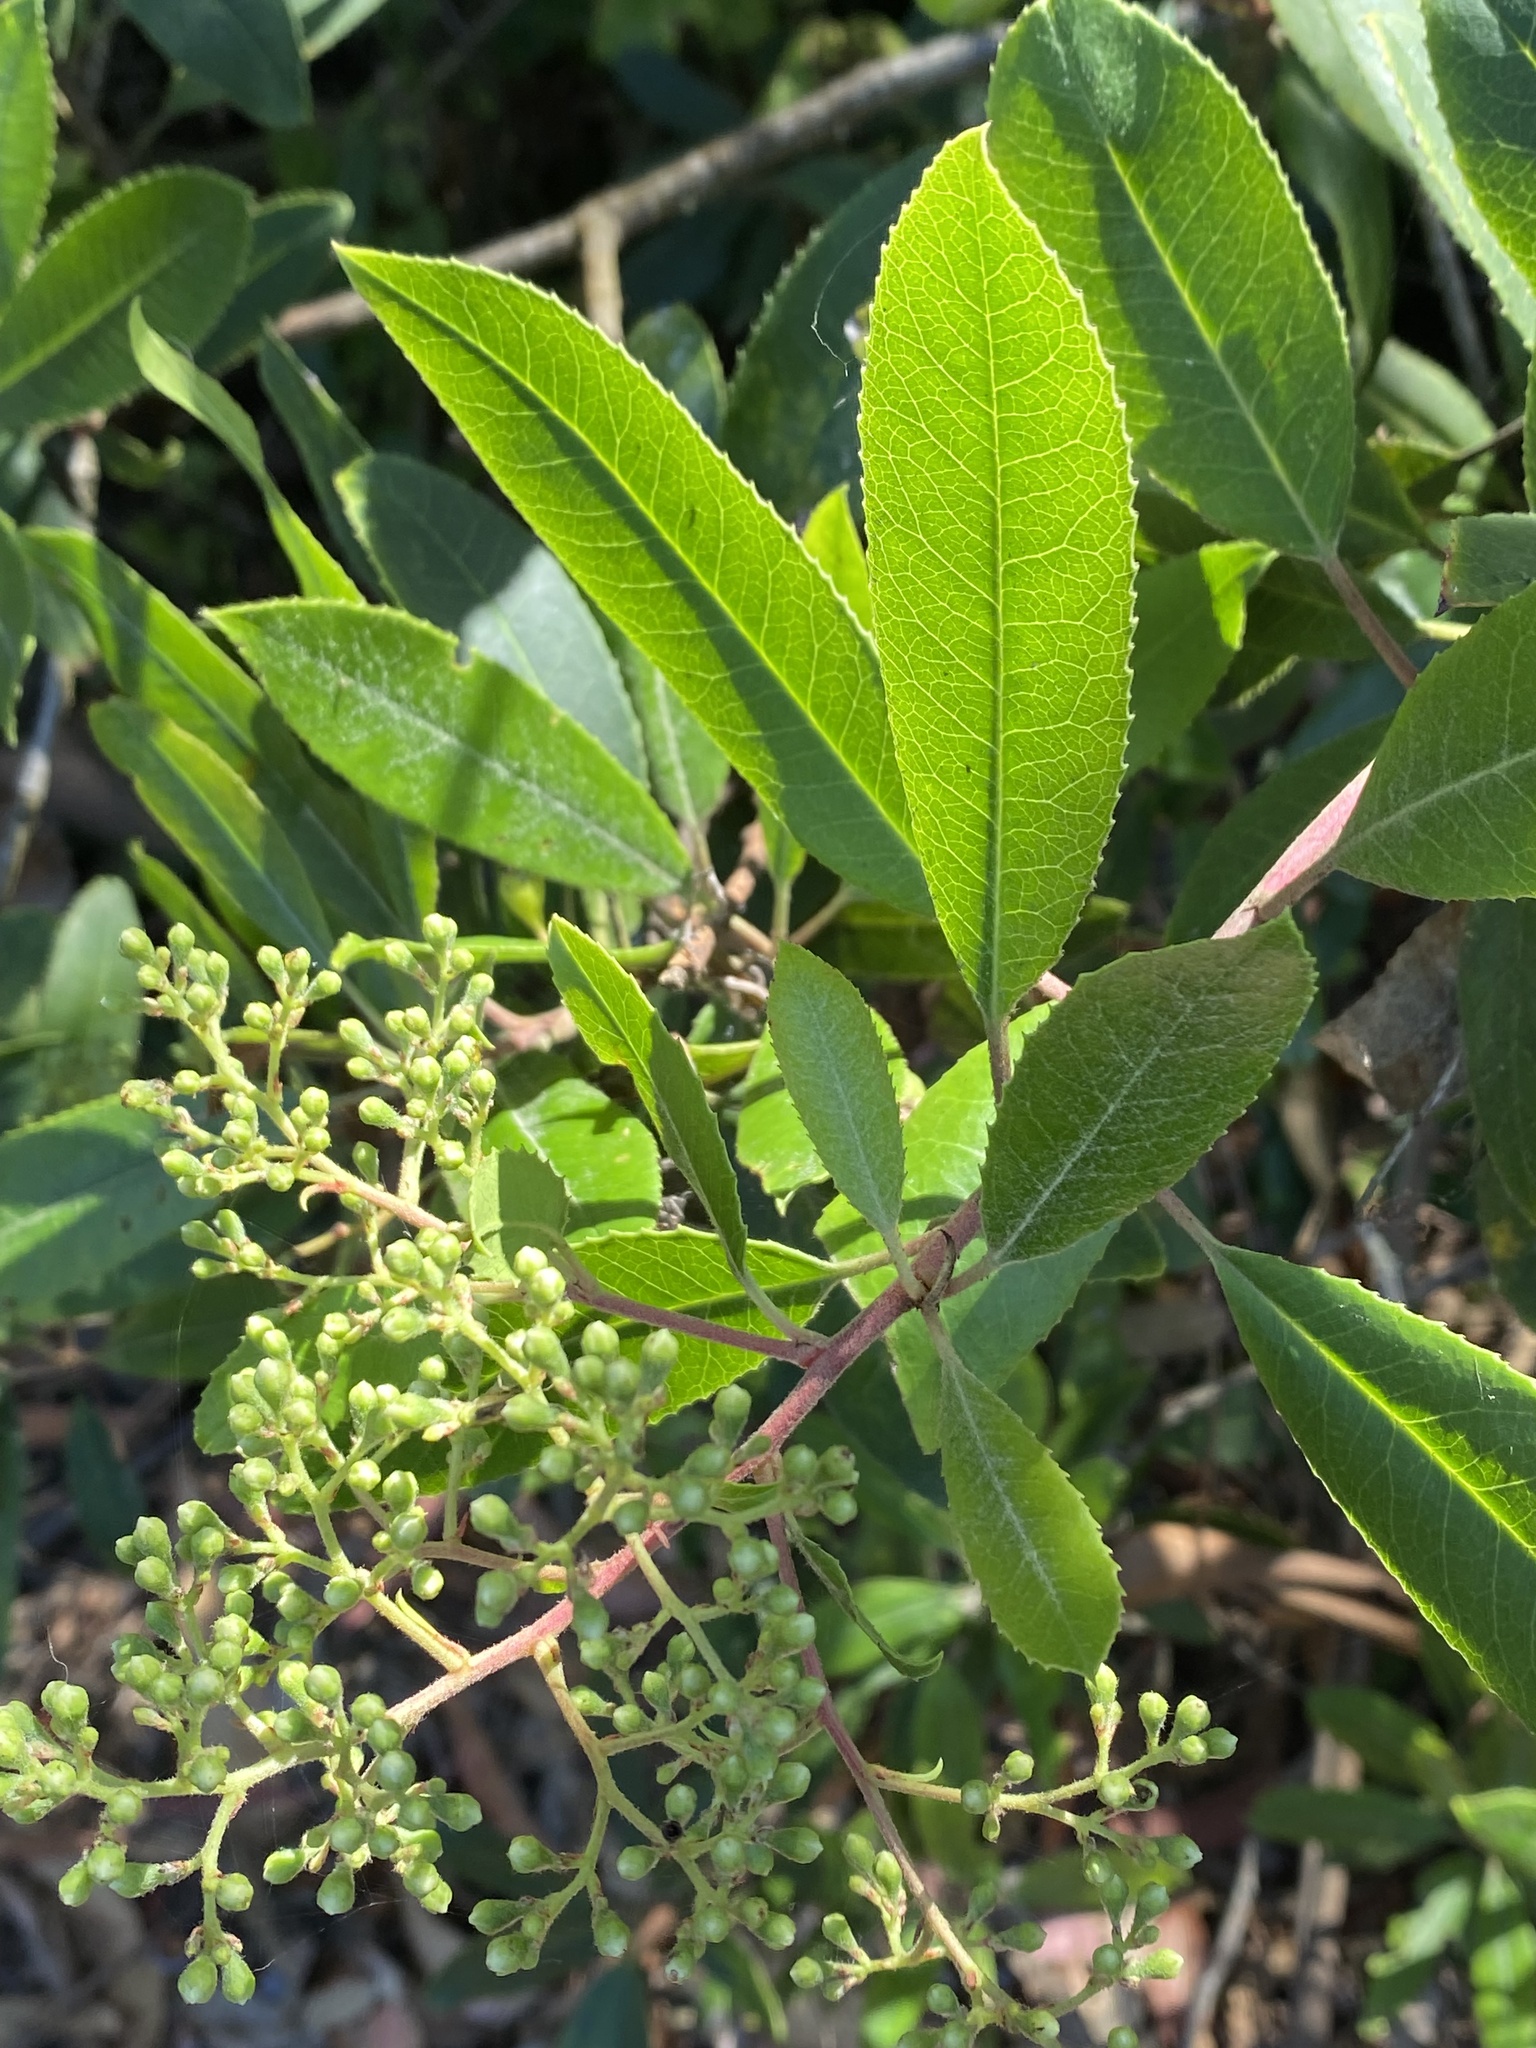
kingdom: Plantae
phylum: Tracheophyta
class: Magnoliopsida
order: Rosales
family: Rosaceae
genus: Heteromeles
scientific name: Heteromeles arbutifolia
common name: California-holly
